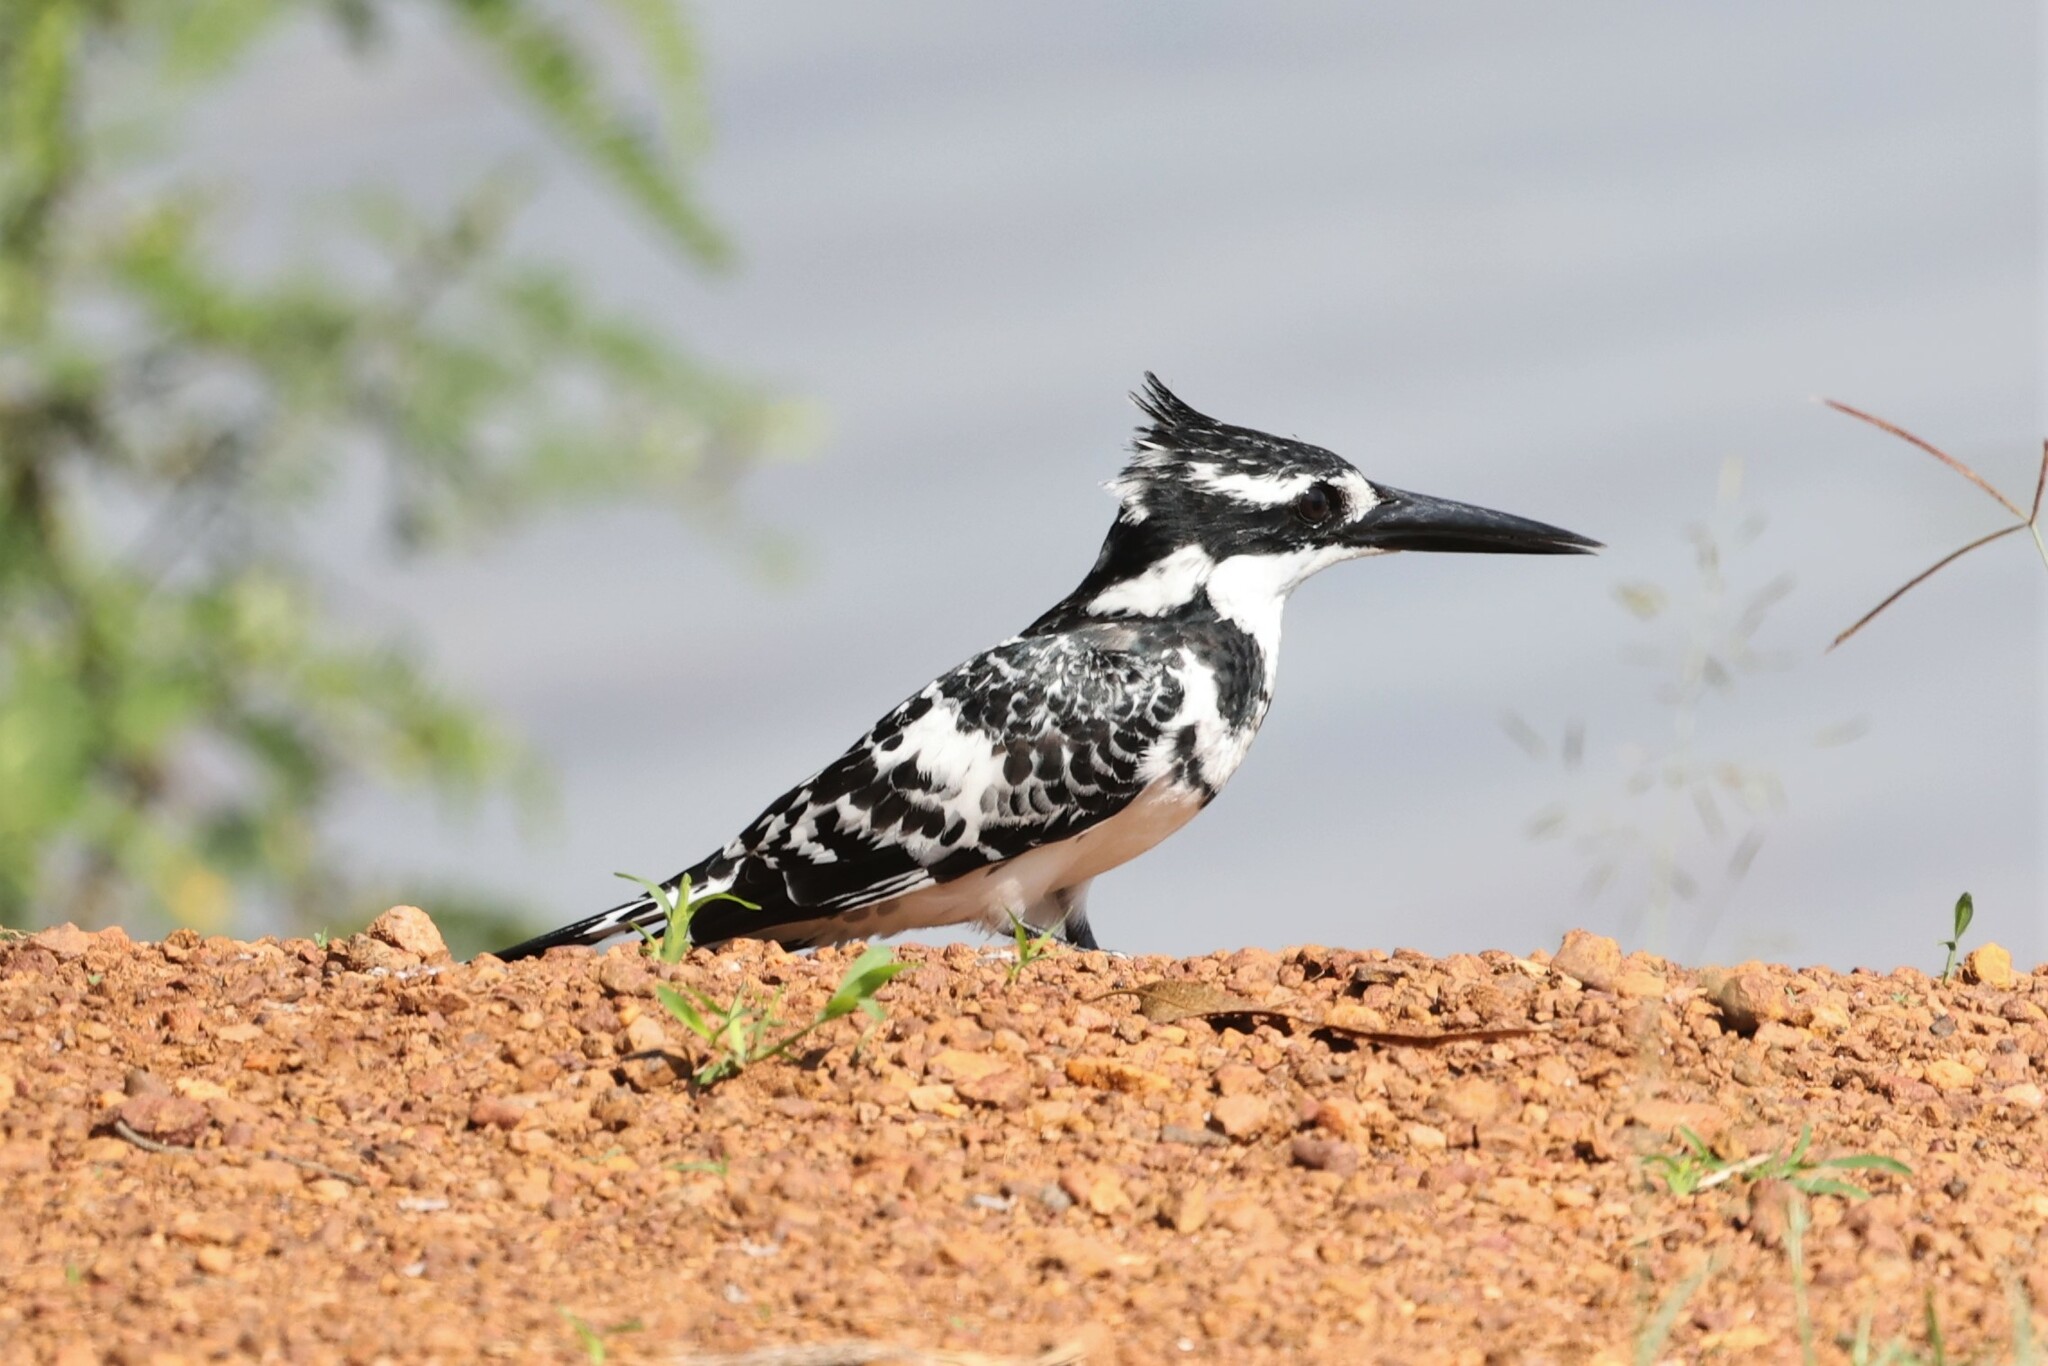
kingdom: Animalia
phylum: Chordata
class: Aves
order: Coraciiformes
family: Alcedinidae
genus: Ceryle
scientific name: Ceryle rudis
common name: Pied kingfisher
